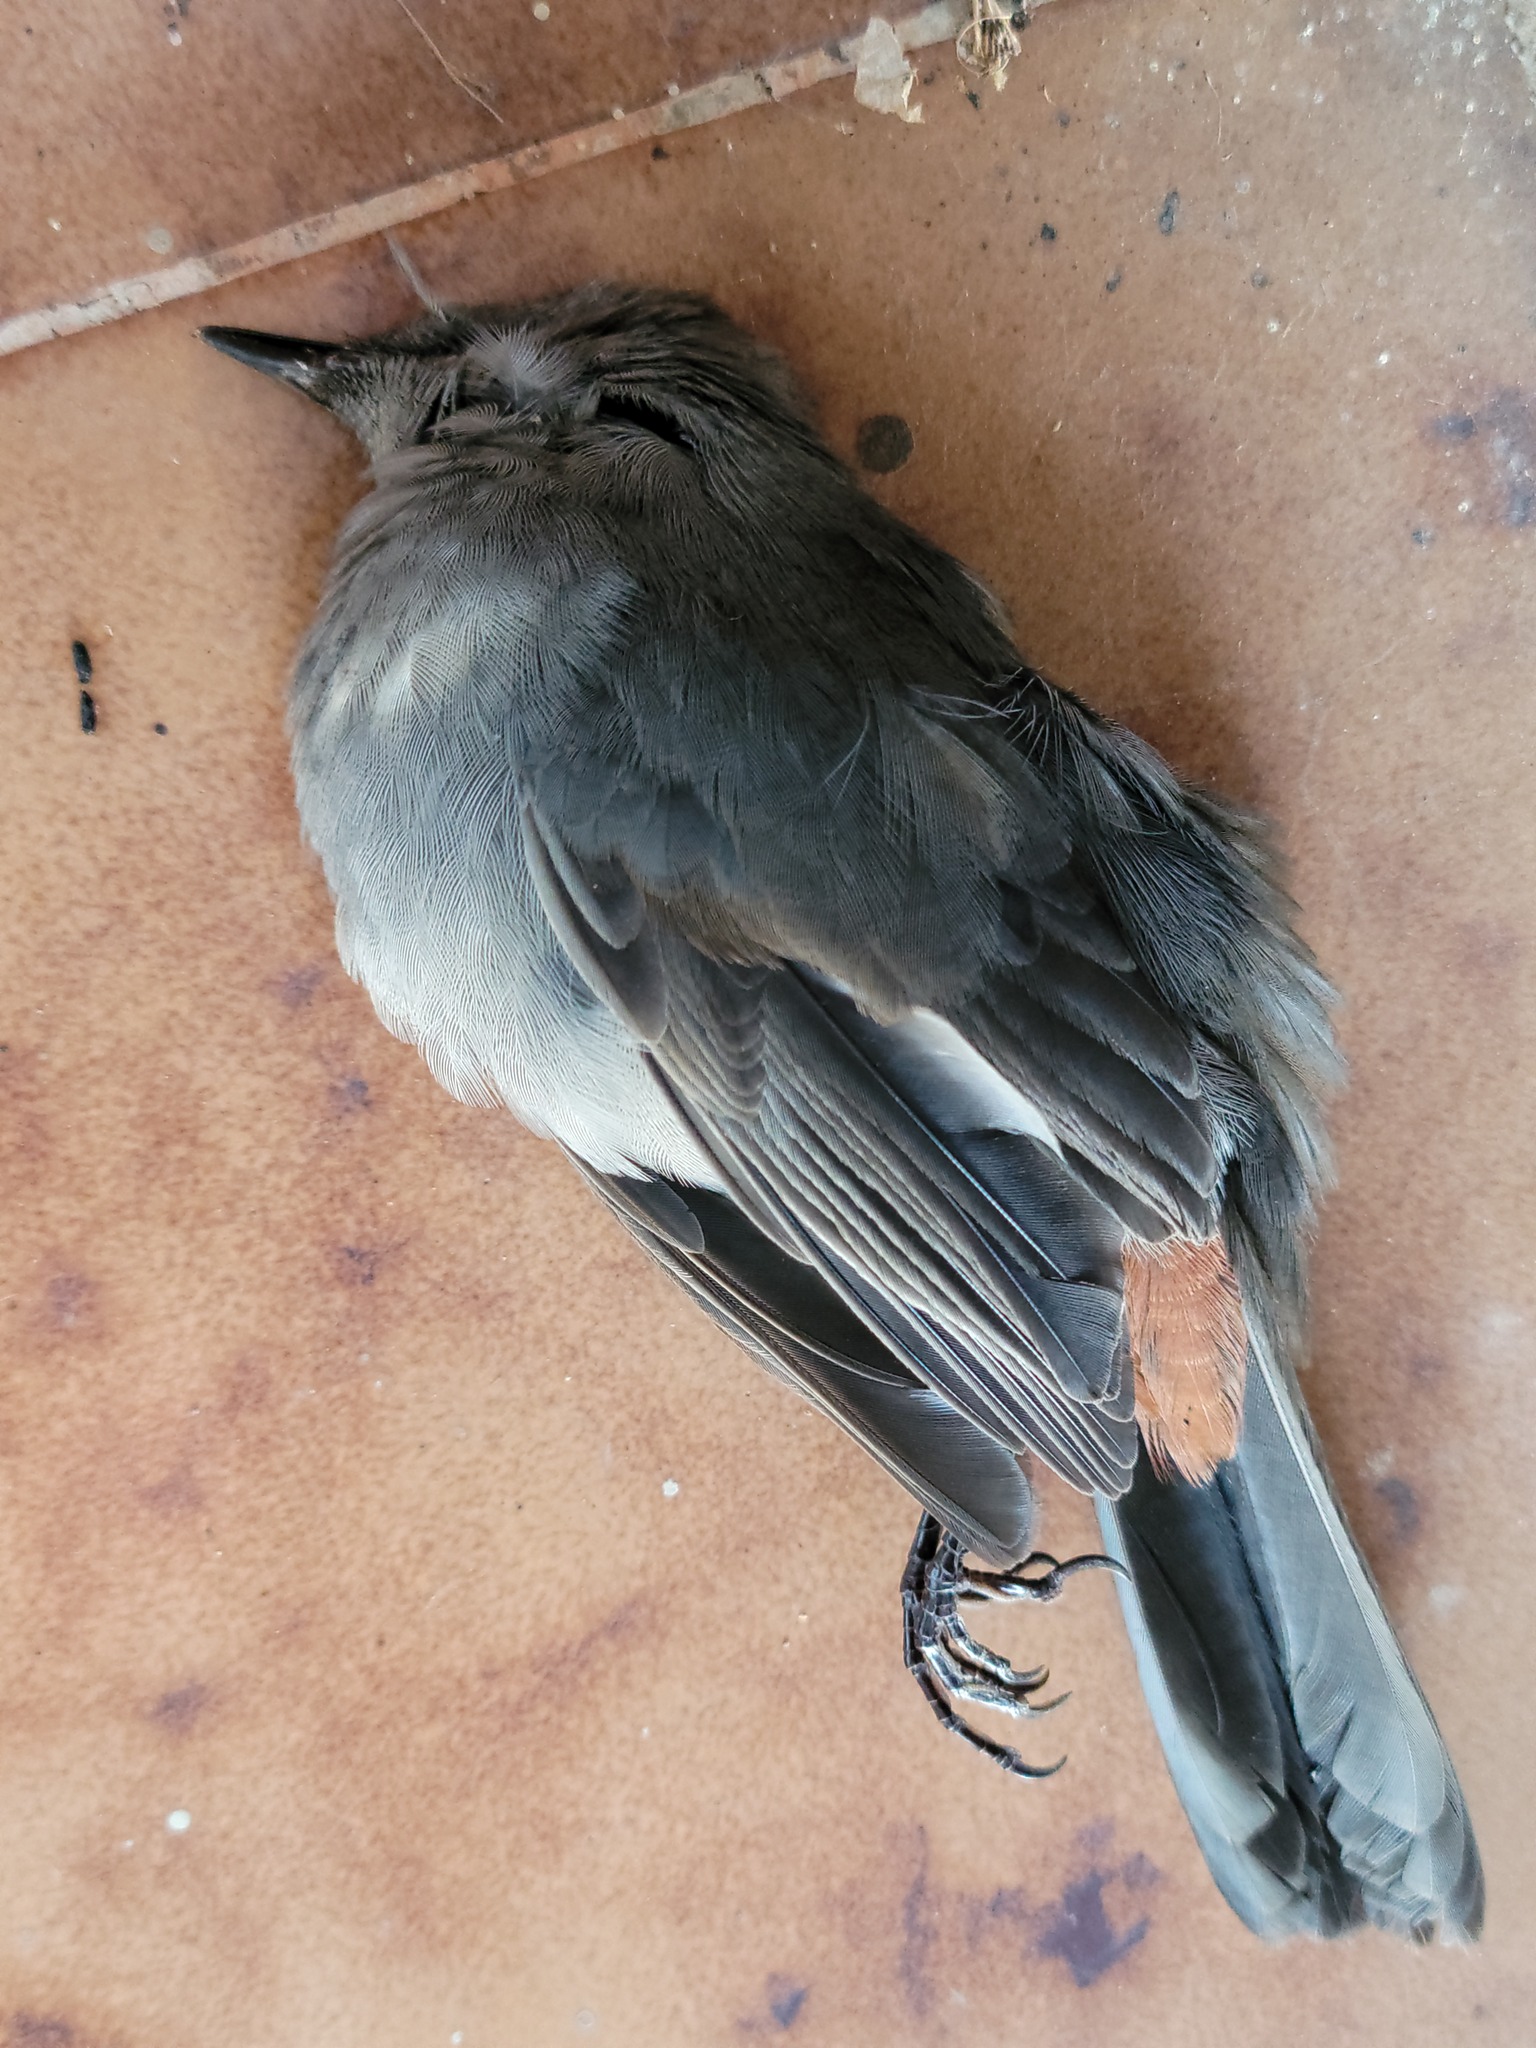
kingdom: Animalia
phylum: Chordata
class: Aves
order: Passeriformes
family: Mimidae
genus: Dumetella
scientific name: Dumetella carolinensis
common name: Gray catbird
